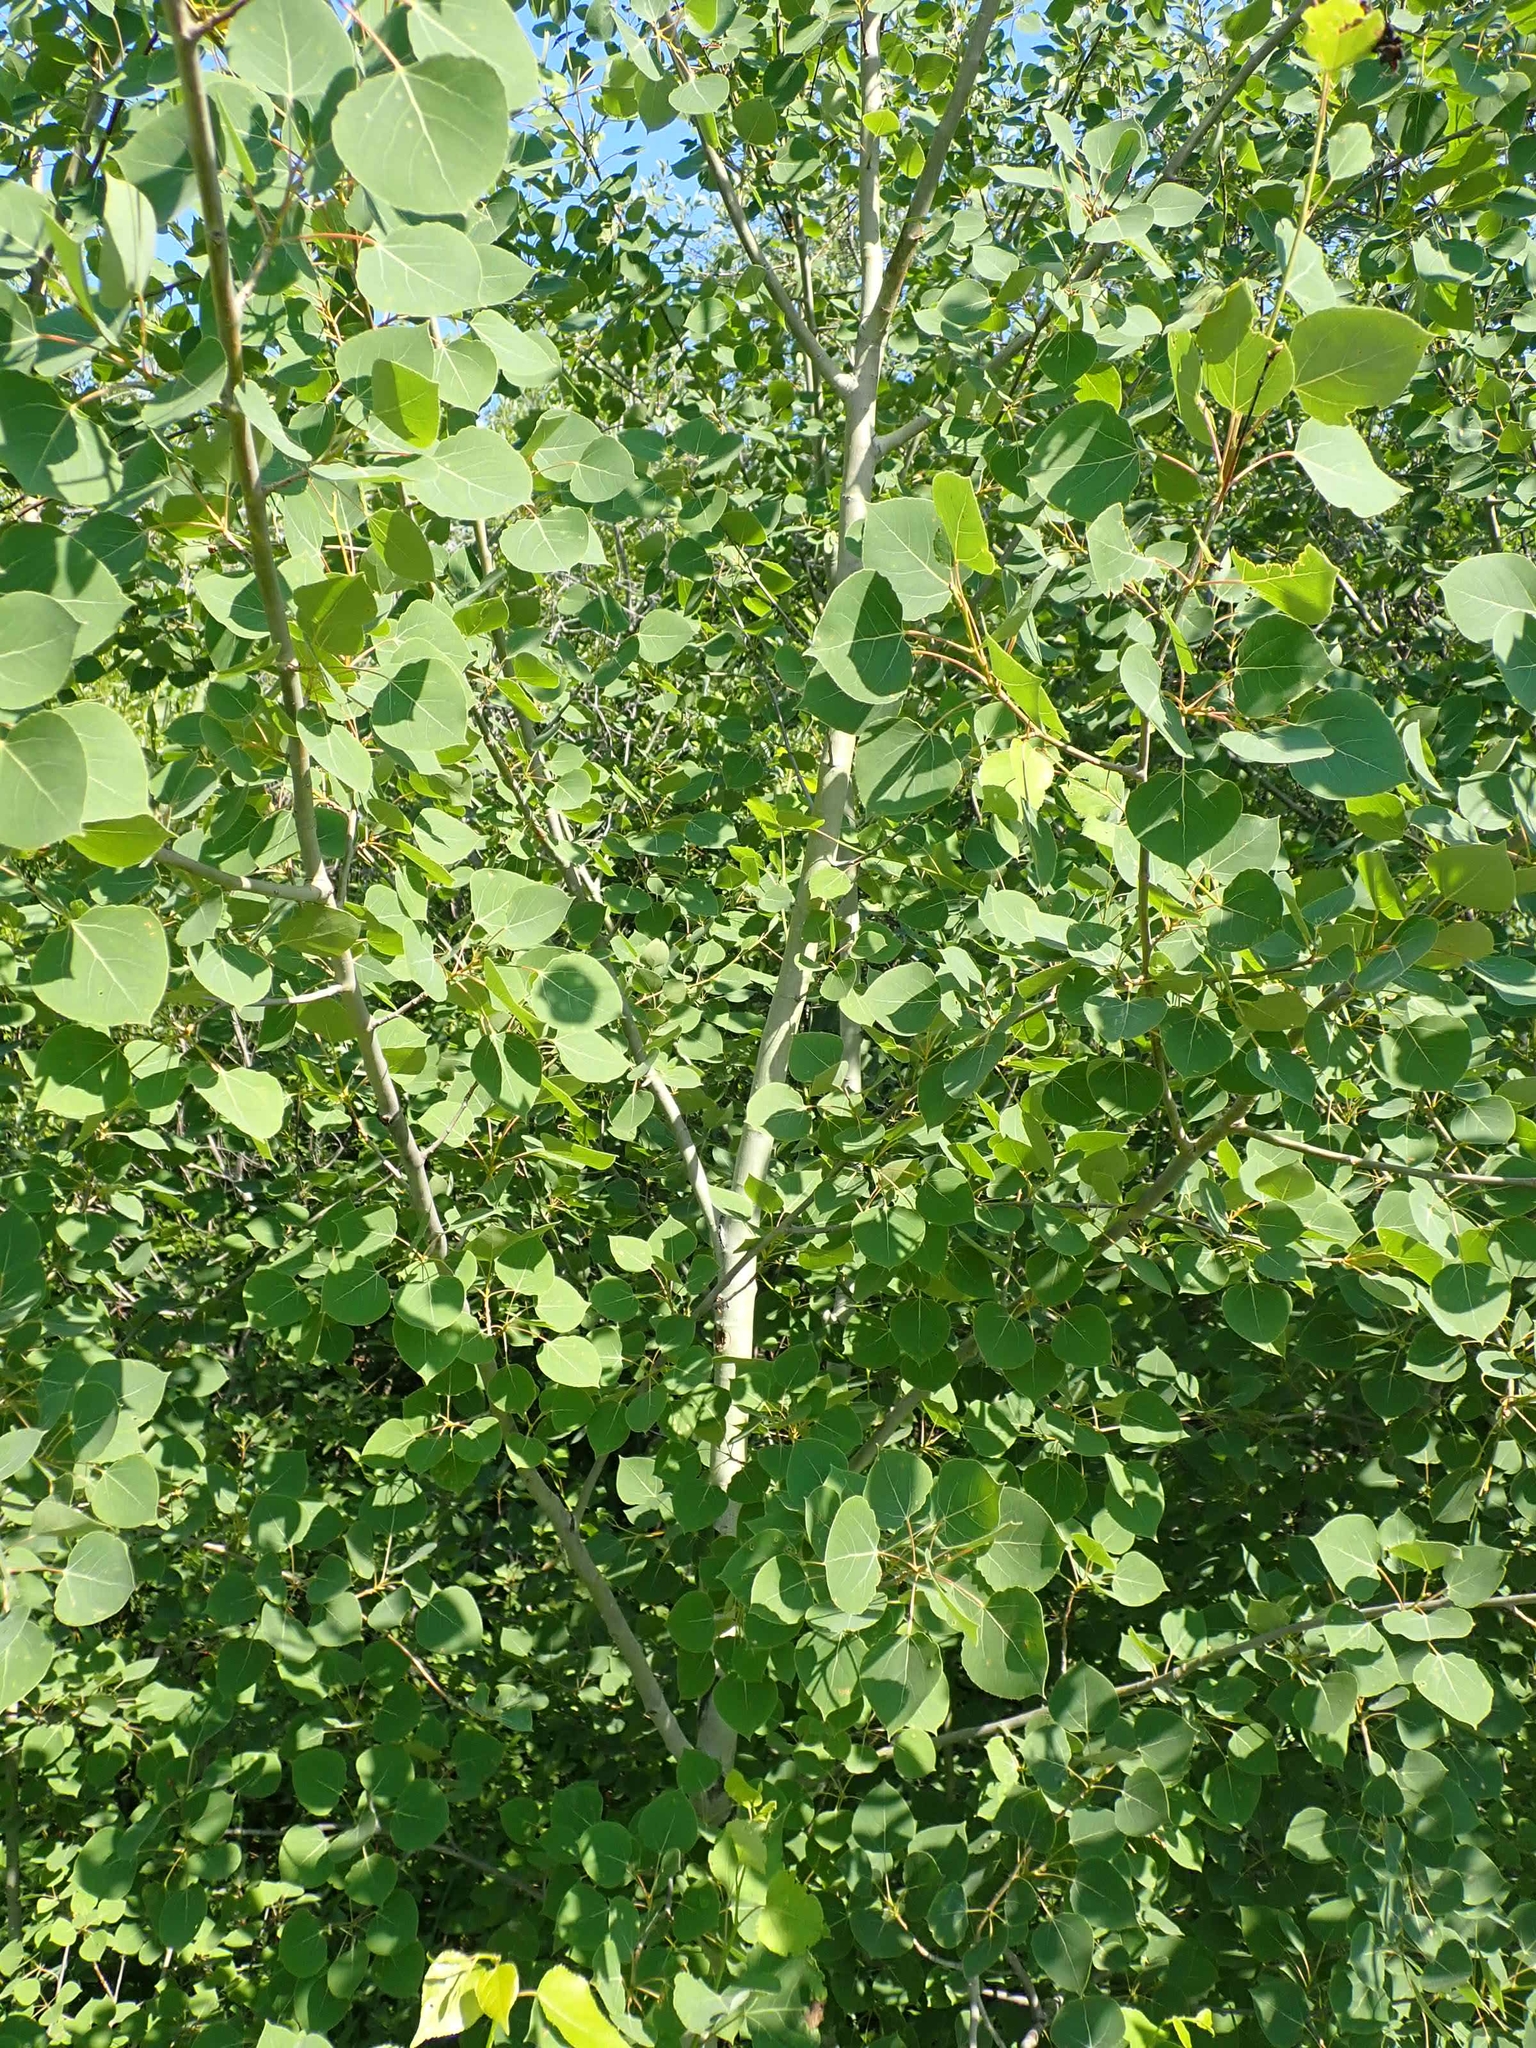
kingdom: Plantae
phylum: Tracheophyta
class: Magnoliopsida
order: Malpighiales
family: Salicaceae
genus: Populus
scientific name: Populus tremuloides
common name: Quaking aspen
